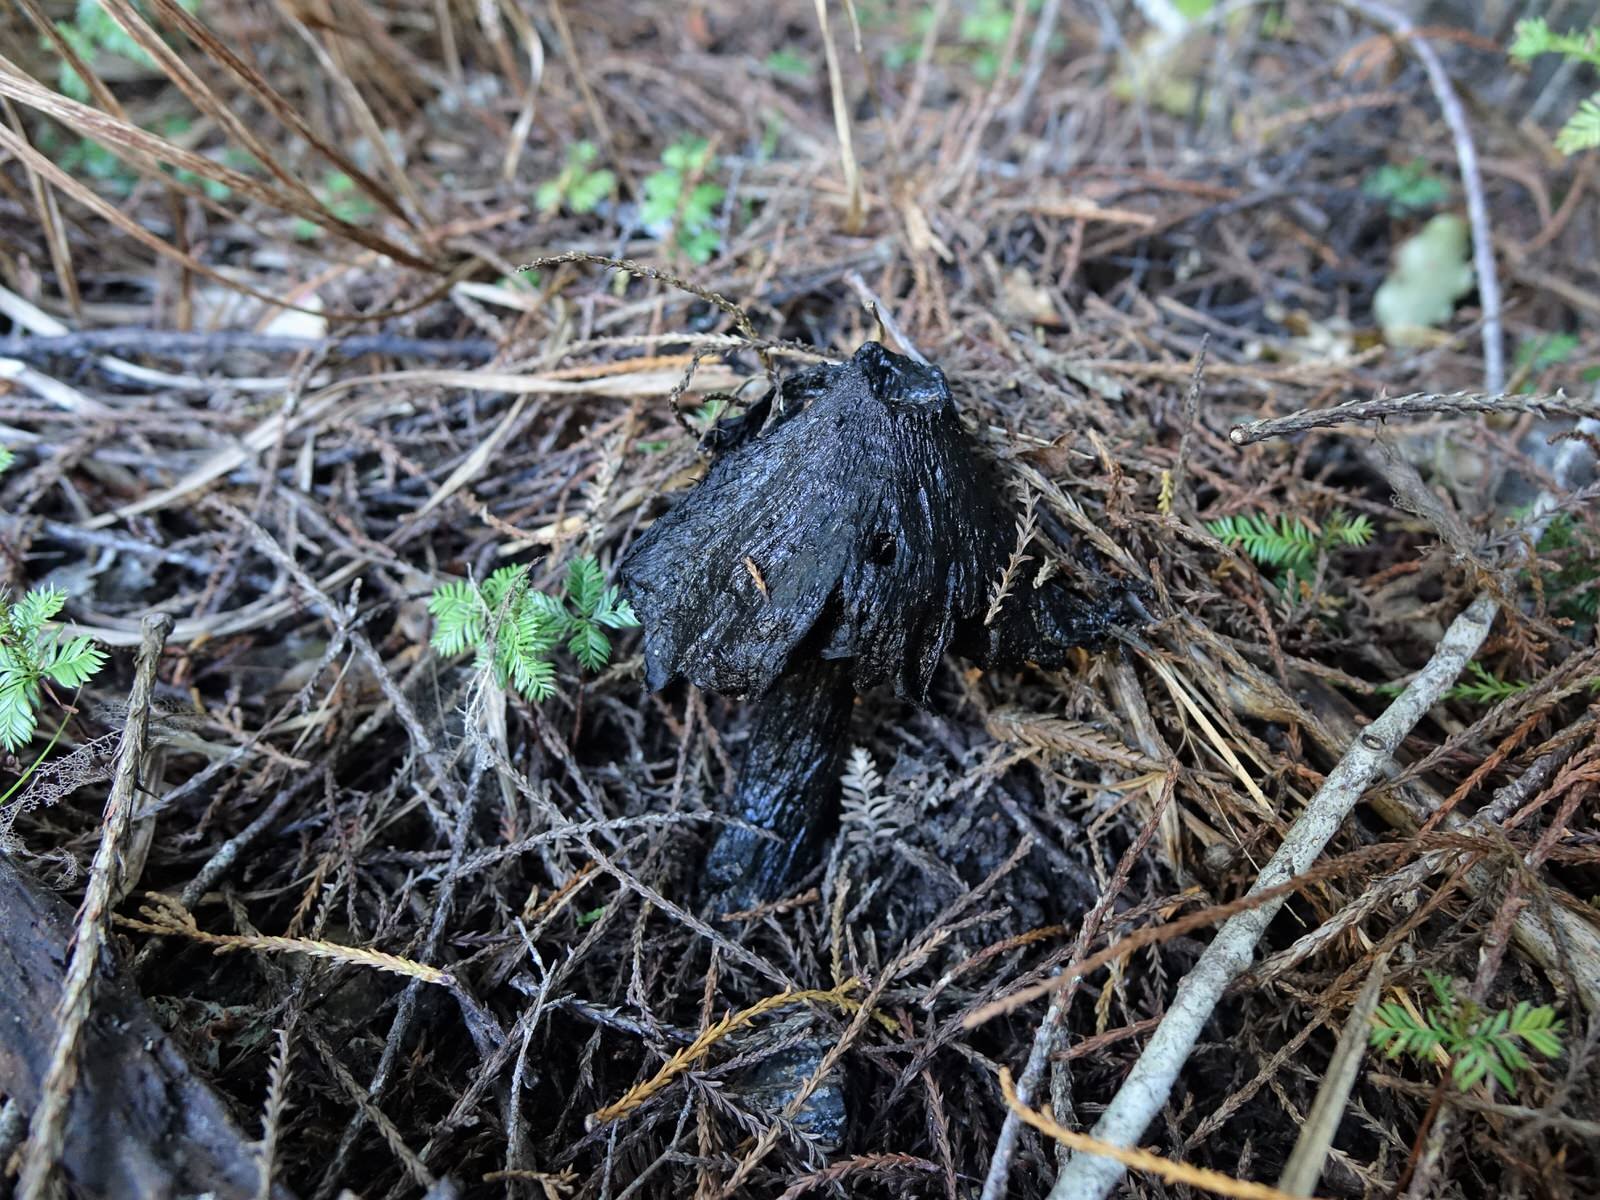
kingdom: Fungi
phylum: Basidiomycota
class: Agaricomycetes
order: Agaricales
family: Hygrophoraceae
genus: Hygrocybe
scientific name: Hygrocybe astatogala
